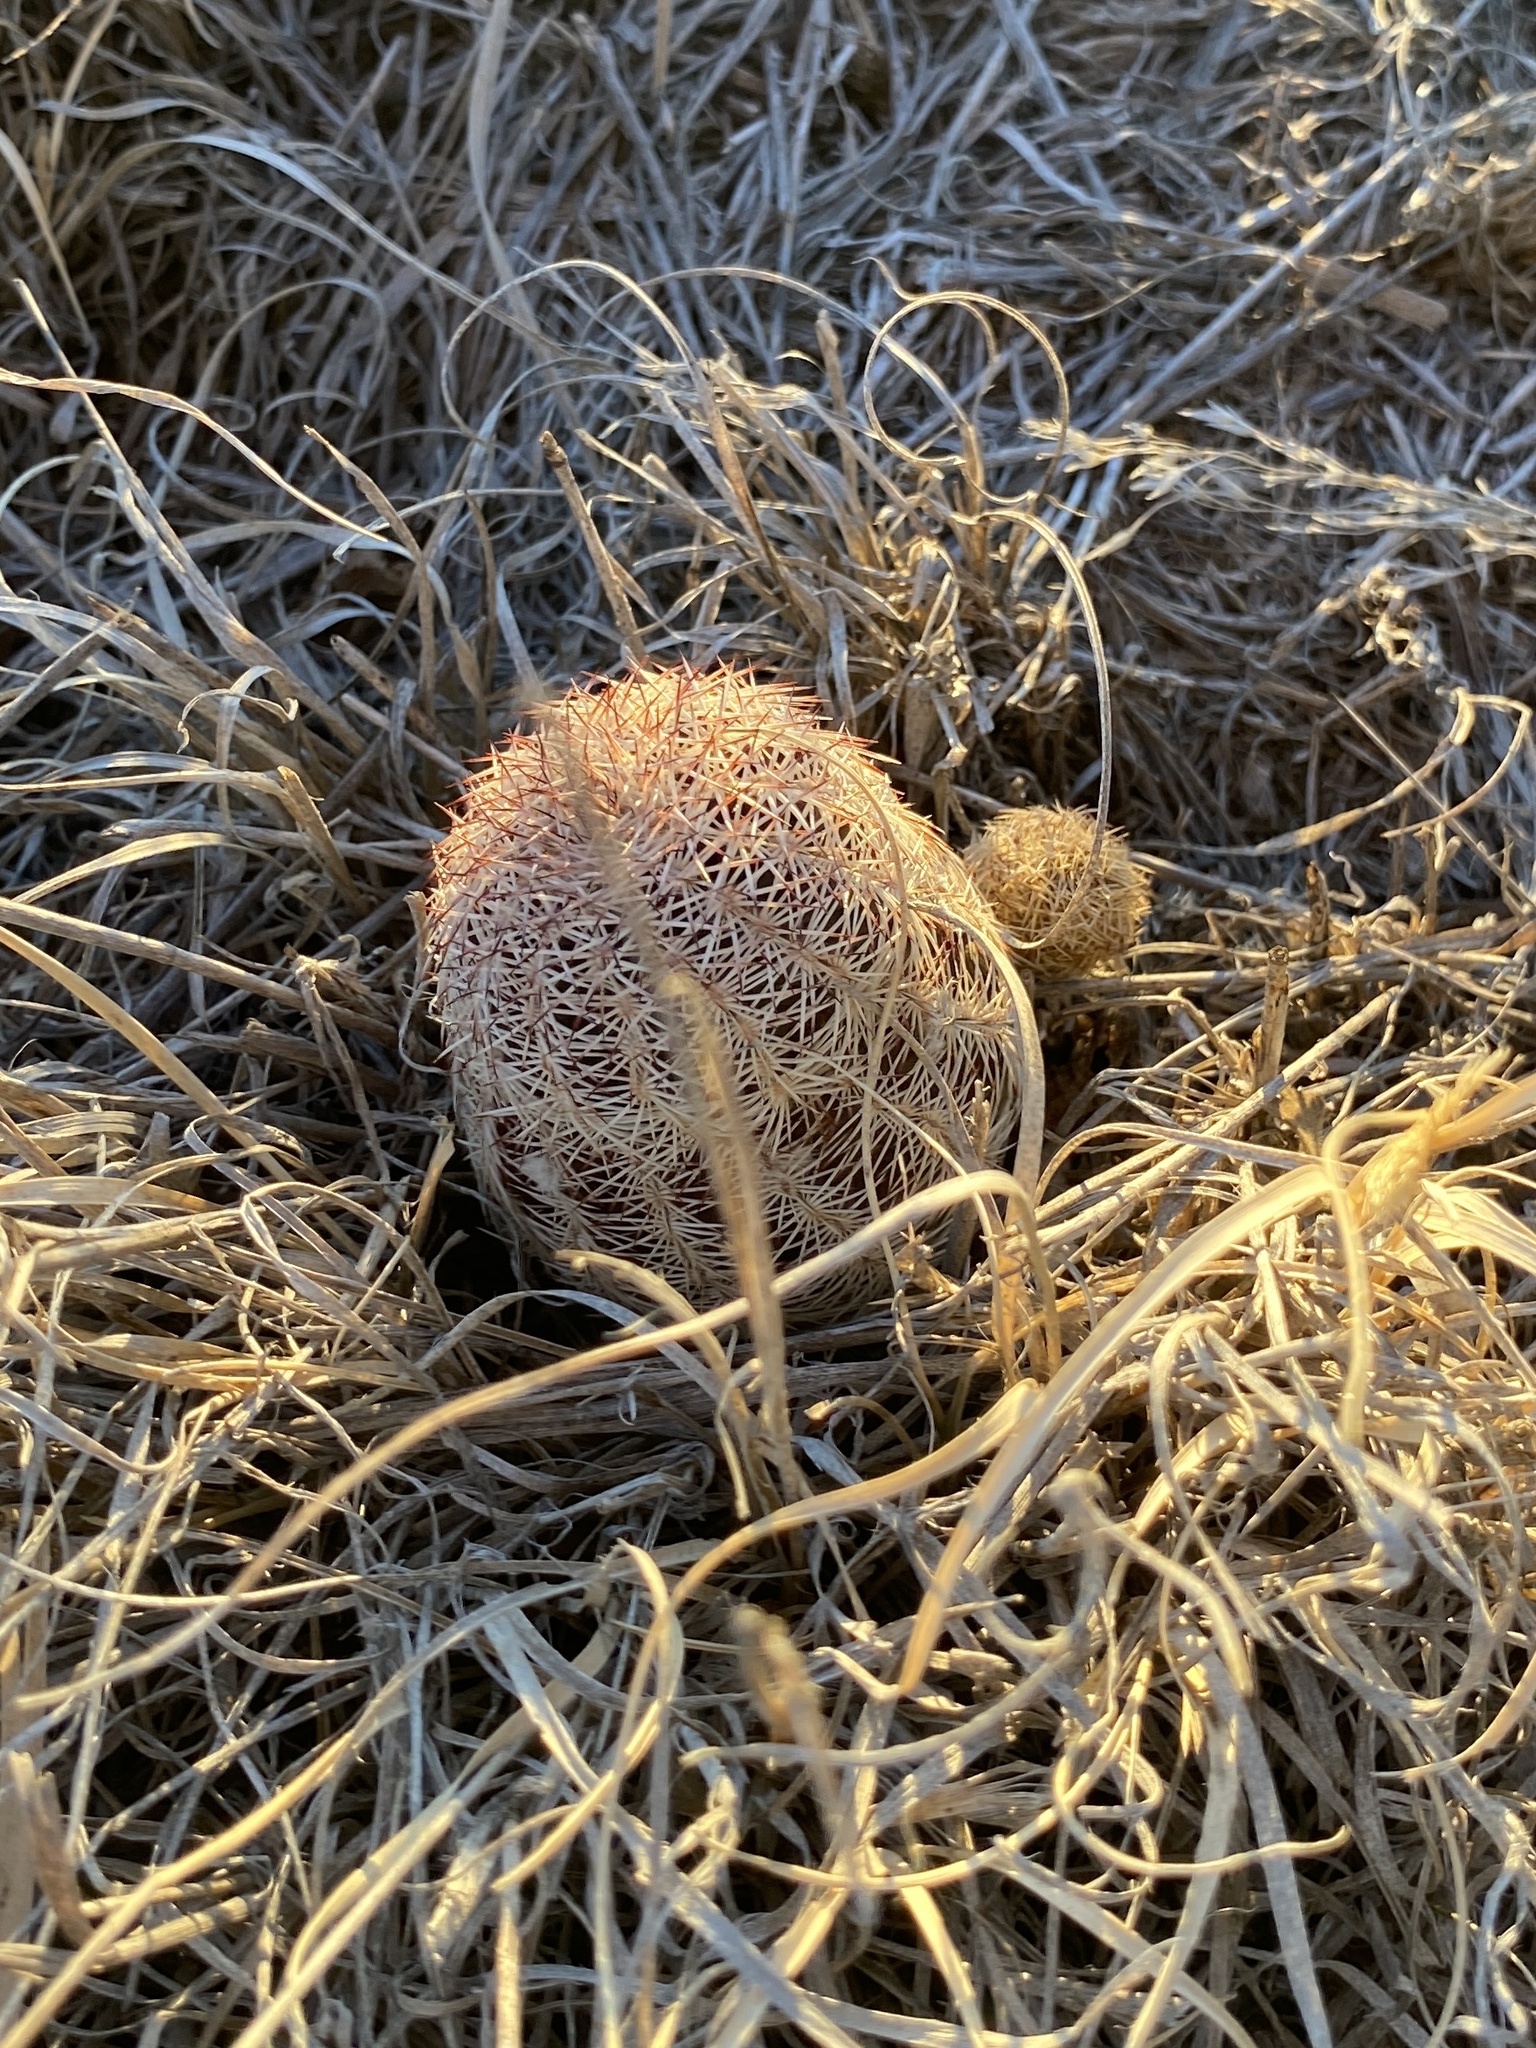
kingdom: Plantae
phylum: Tracheophyta
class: Magnoliopsida
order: Caryophyllales
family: Cactaceae
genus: Echinocereus
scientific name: Echinocereus reichenbachii
